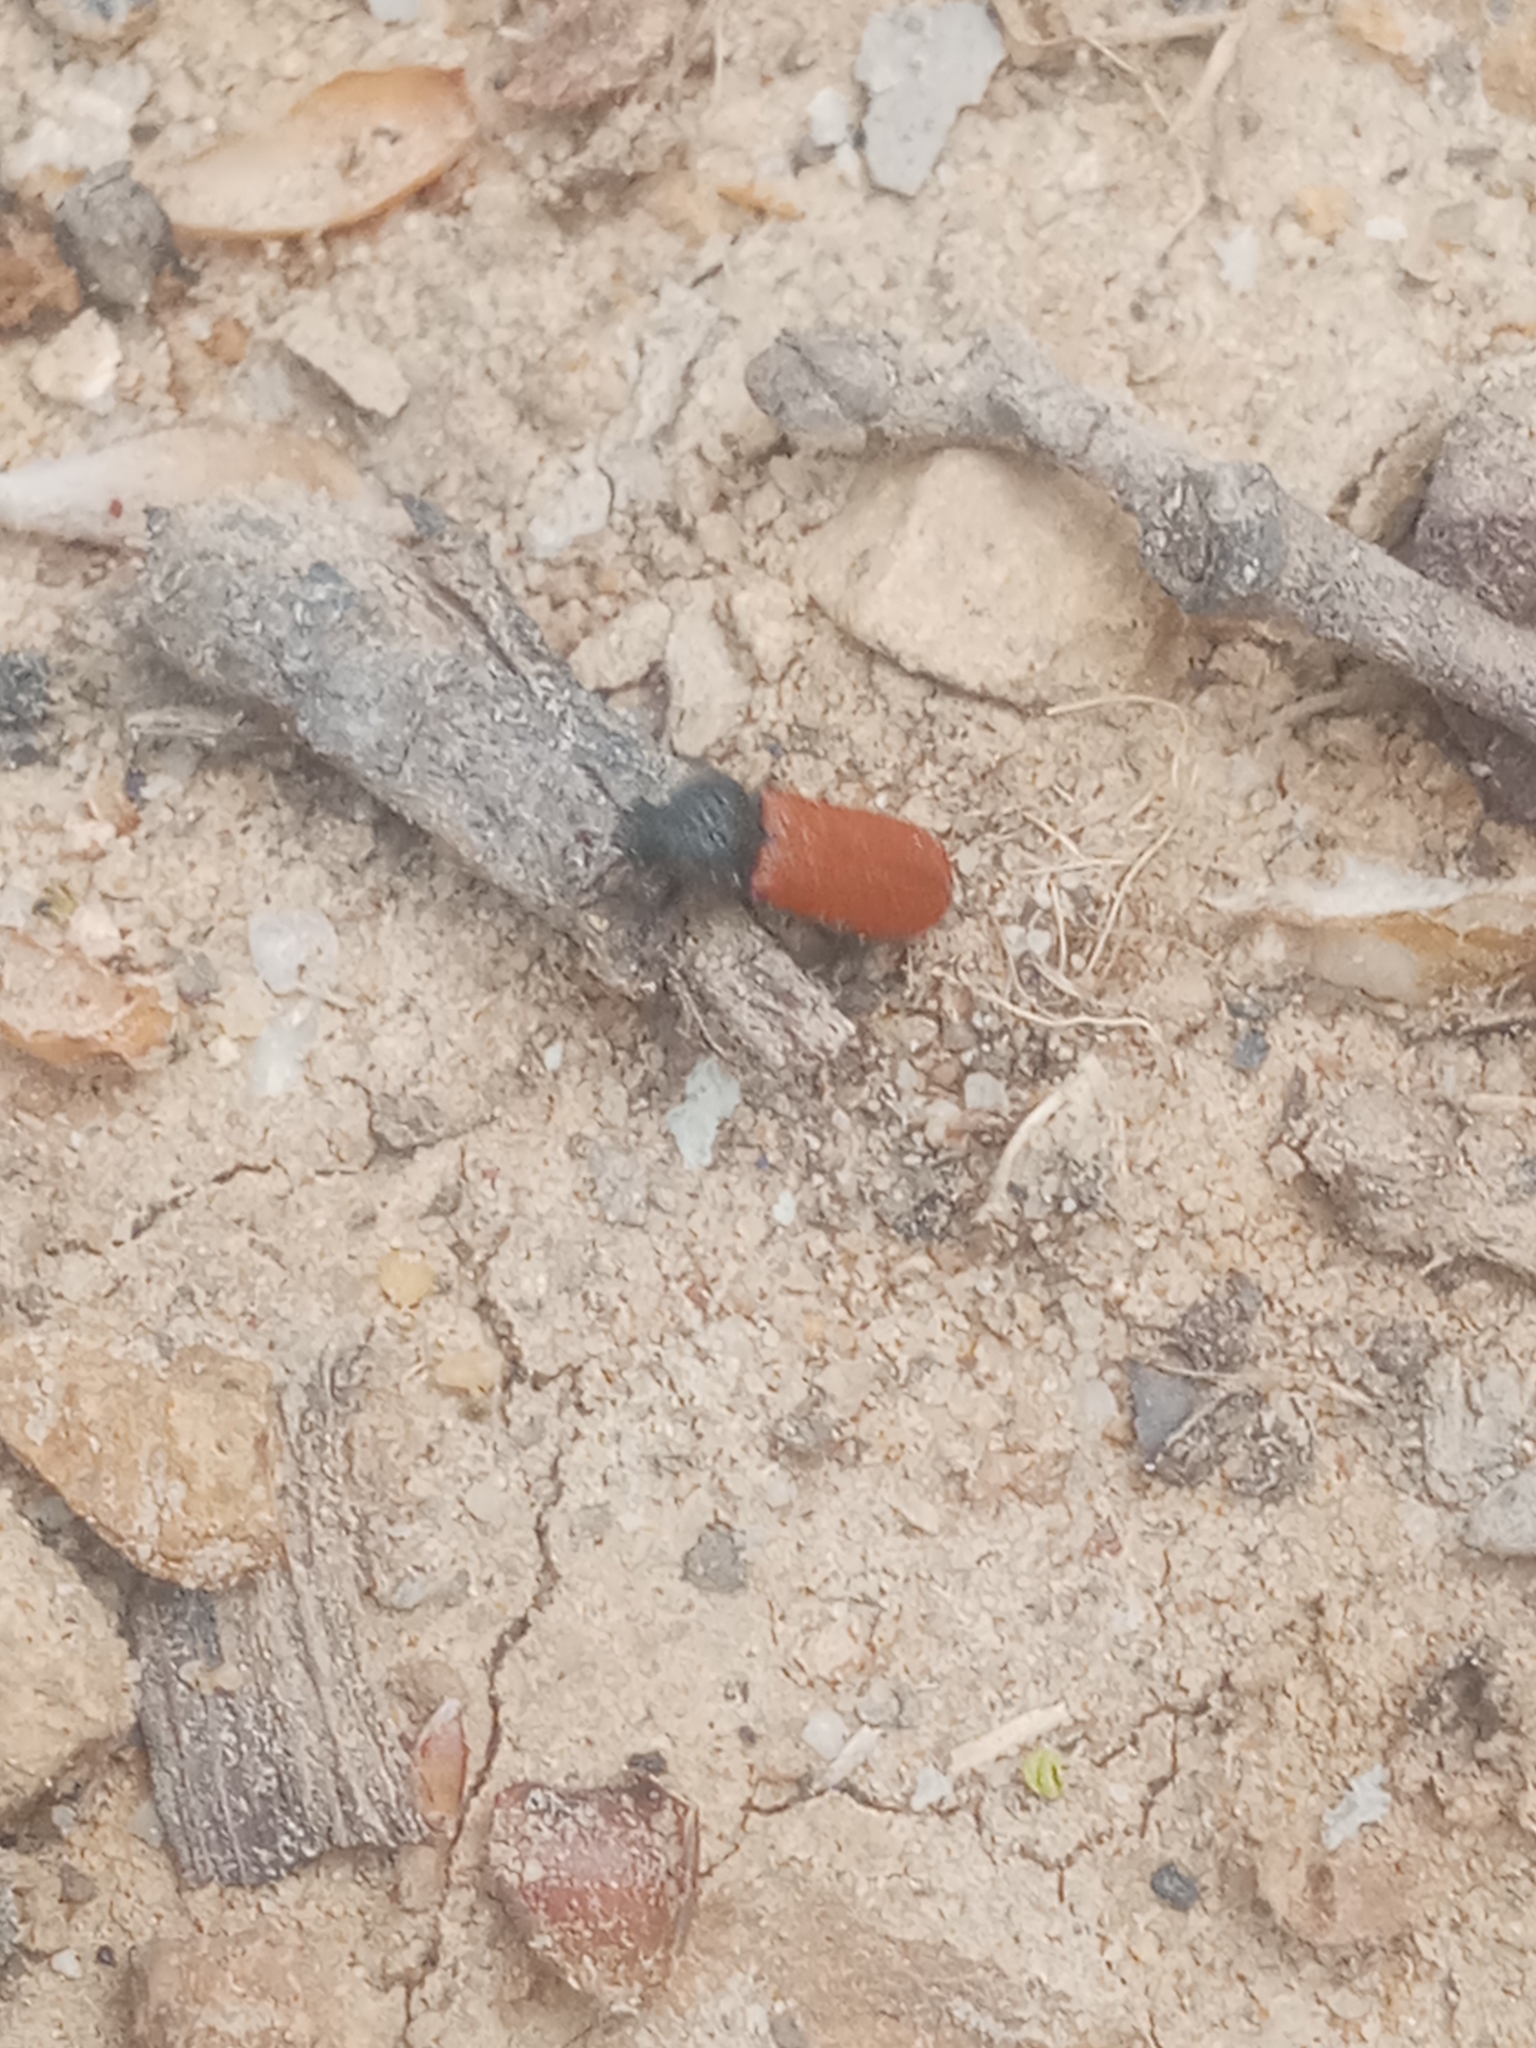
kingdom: Animalia
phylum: Arthropoda
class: Insecta
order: Coleoptera
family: Bostrichidae
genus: Bostrichus
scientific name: Bostrichus capucinus
